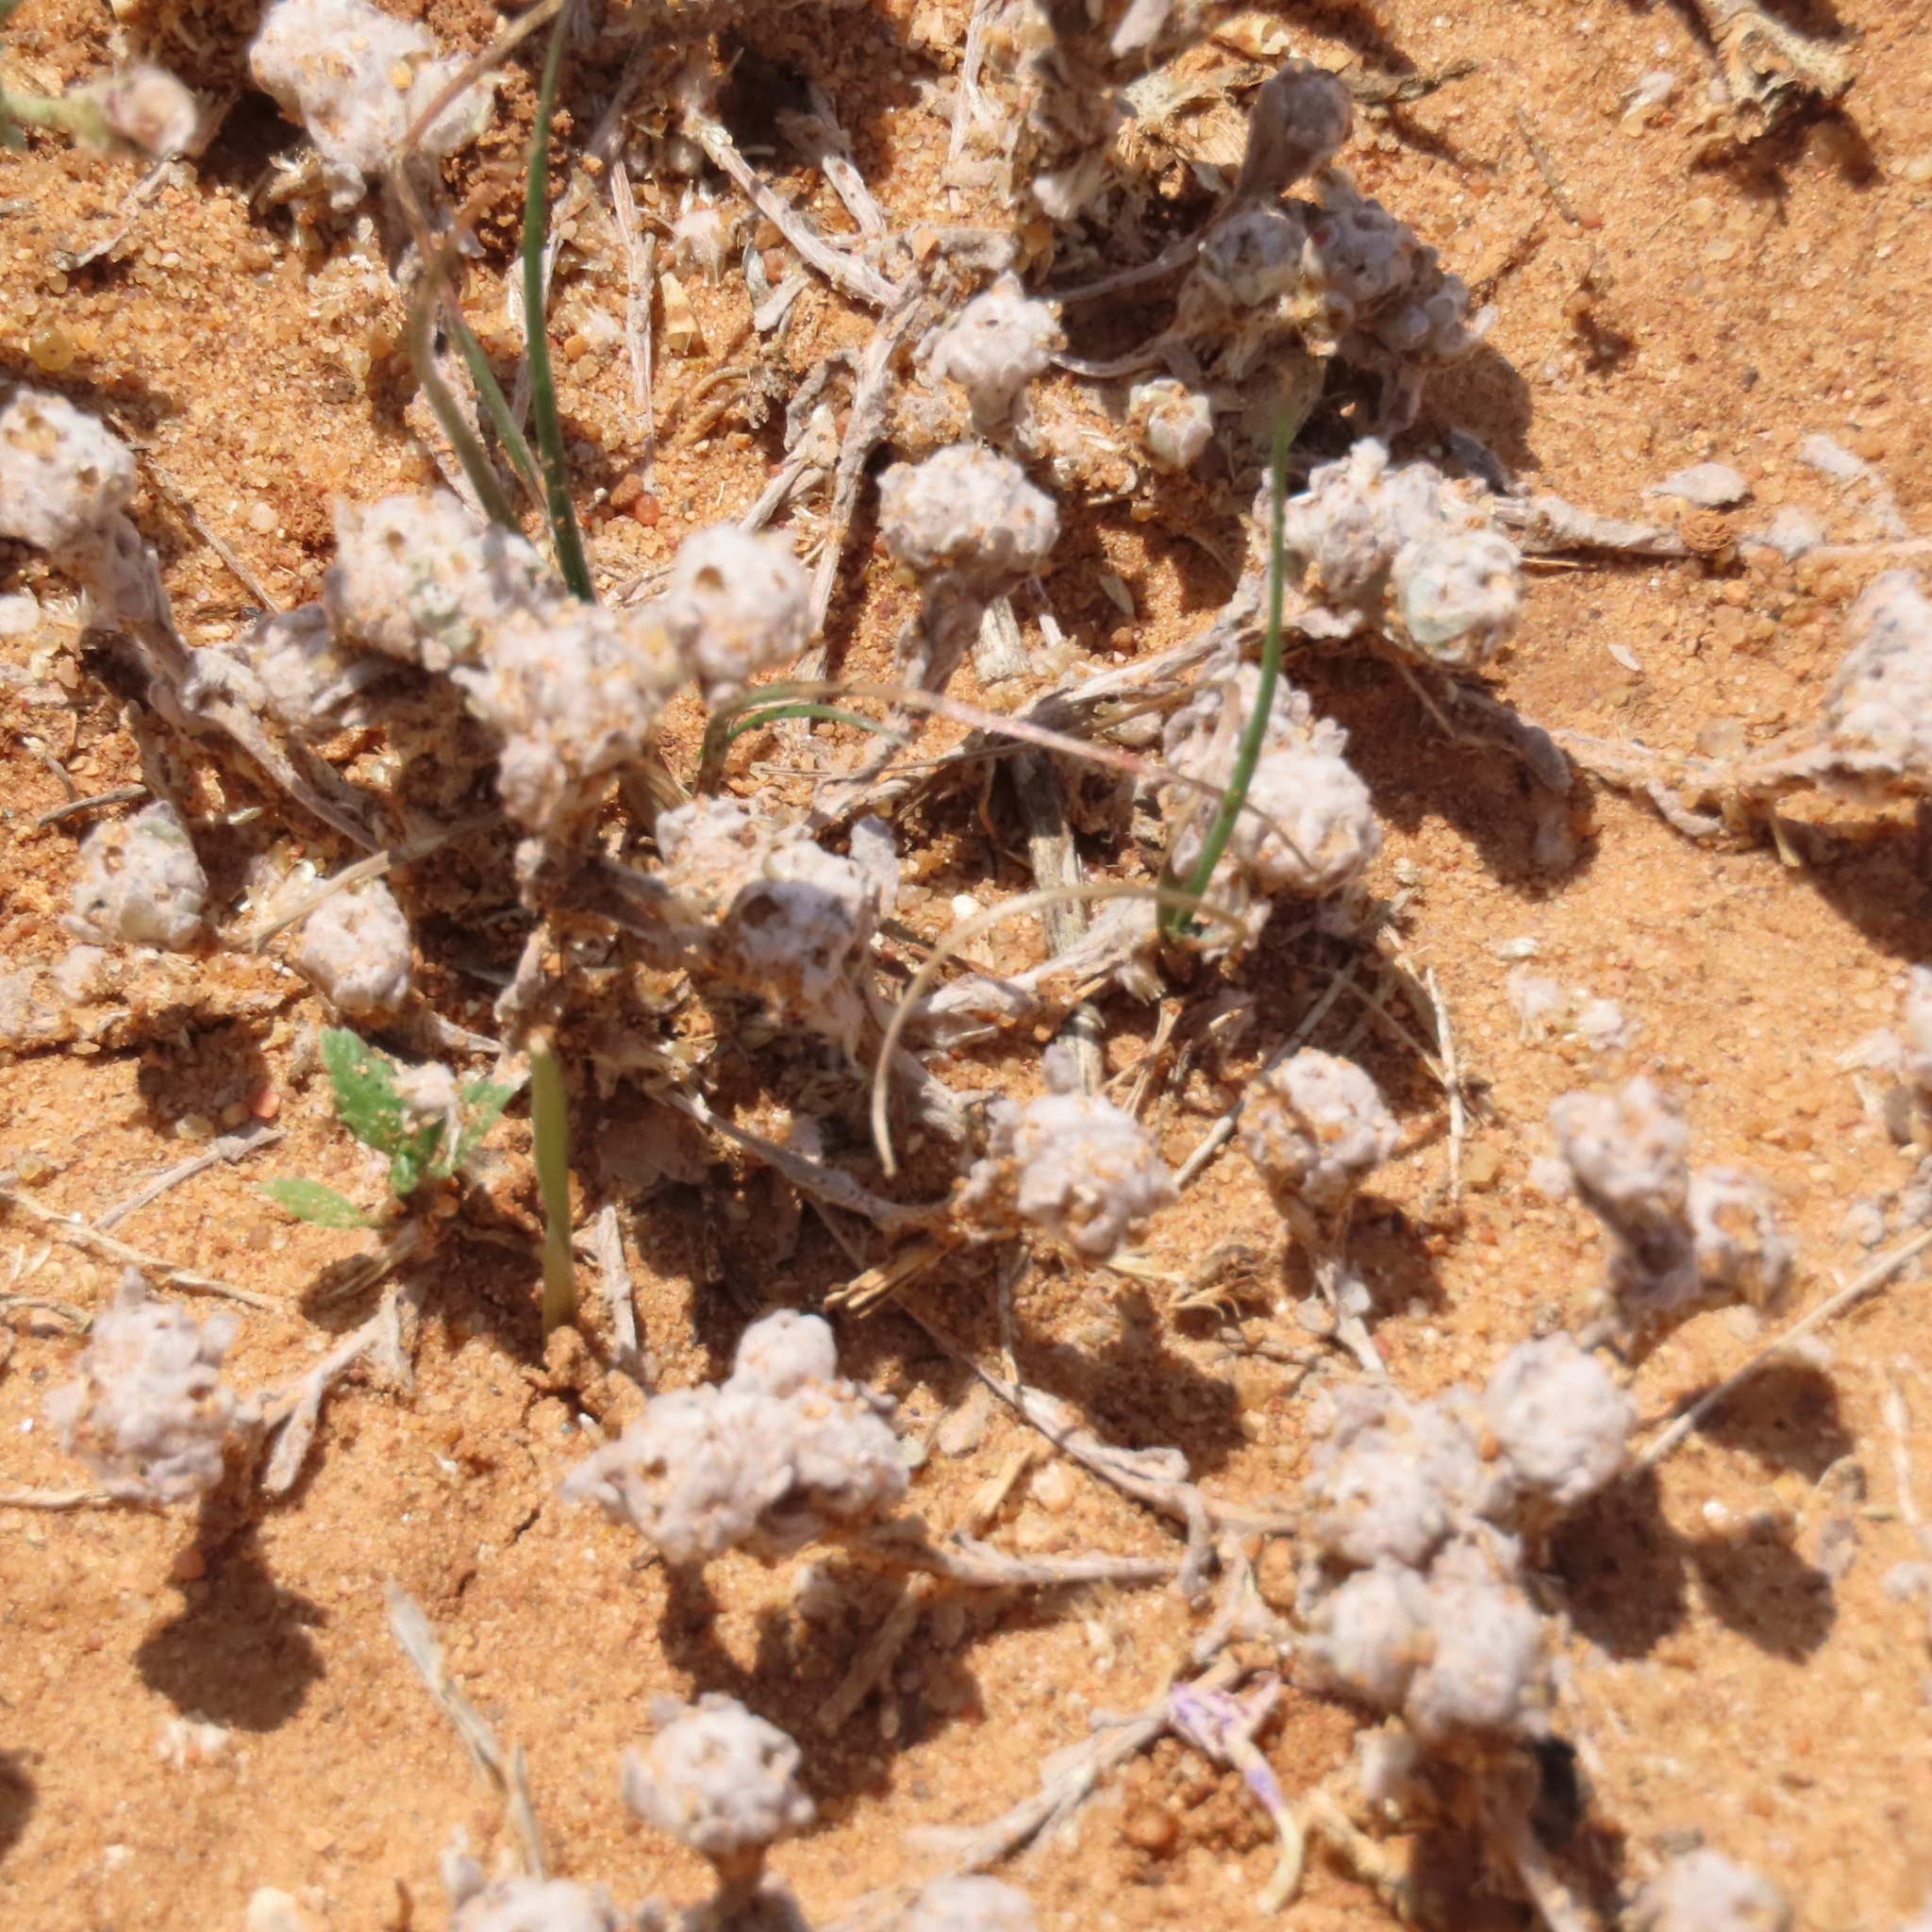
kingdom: Plantae
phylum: Tracheophyta
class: Magnoliopsida
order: Asterales
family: Asteraceae
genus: Diaperia
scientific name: Diaperia verna
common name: Many-stem rabbit-tobacco
